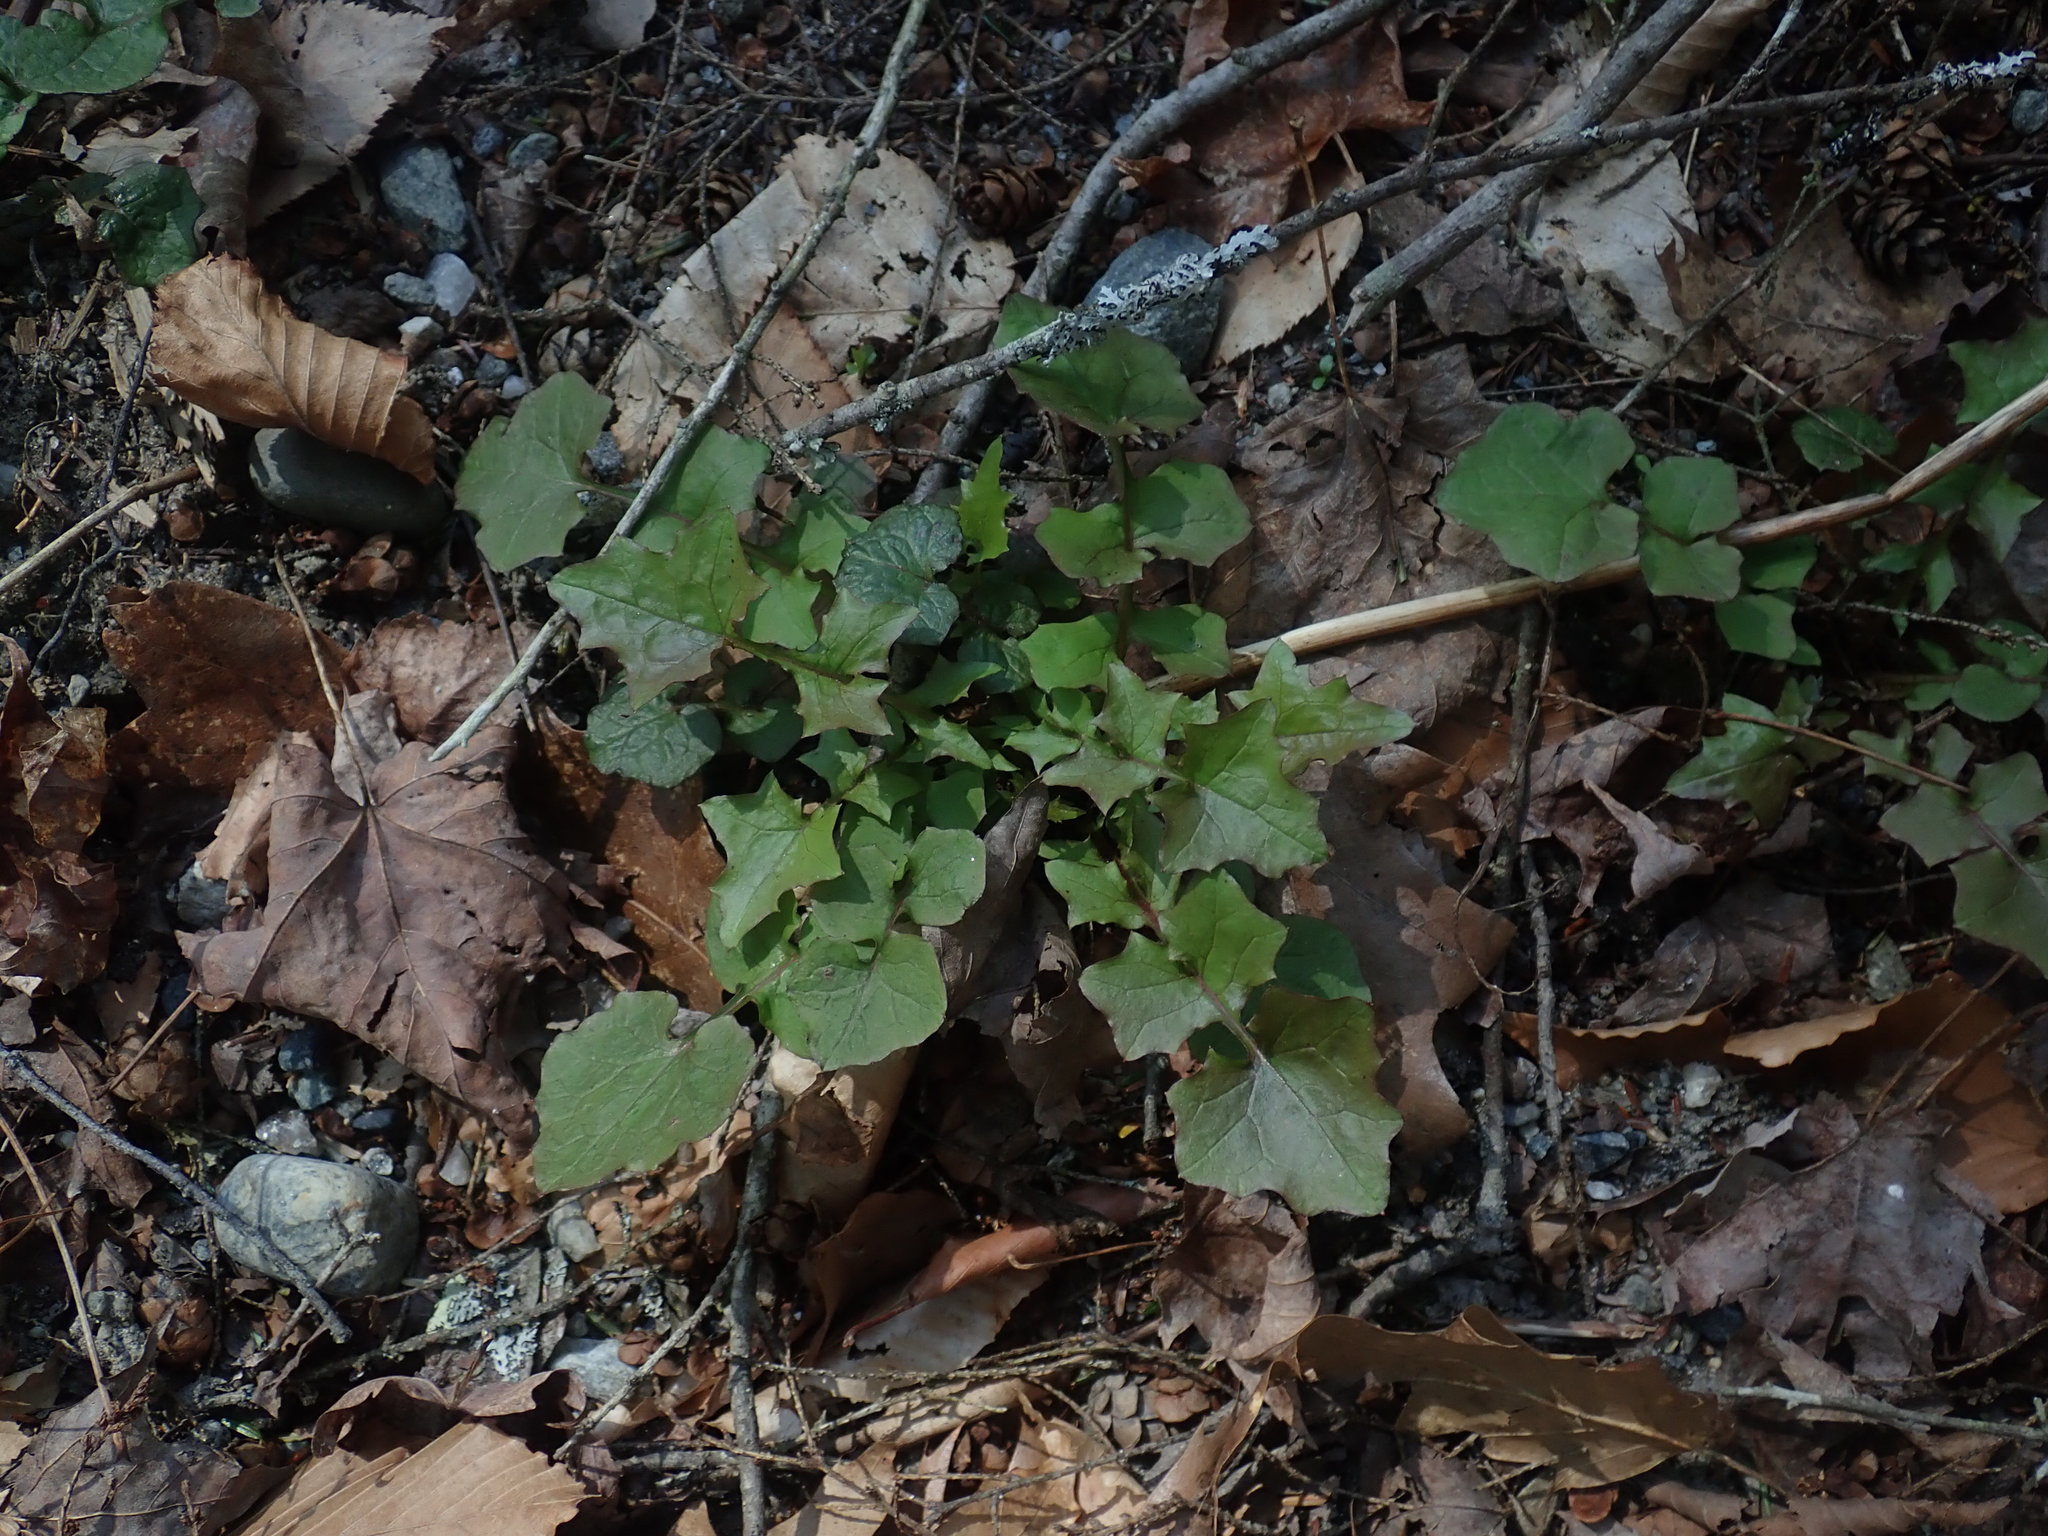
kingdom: Plantae
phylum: Tracheophyta
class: Magnoliopsida
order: Asterales
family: Asteraceae
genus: Mycelis
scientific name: Mycelis muralis
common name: Wall lettuce
